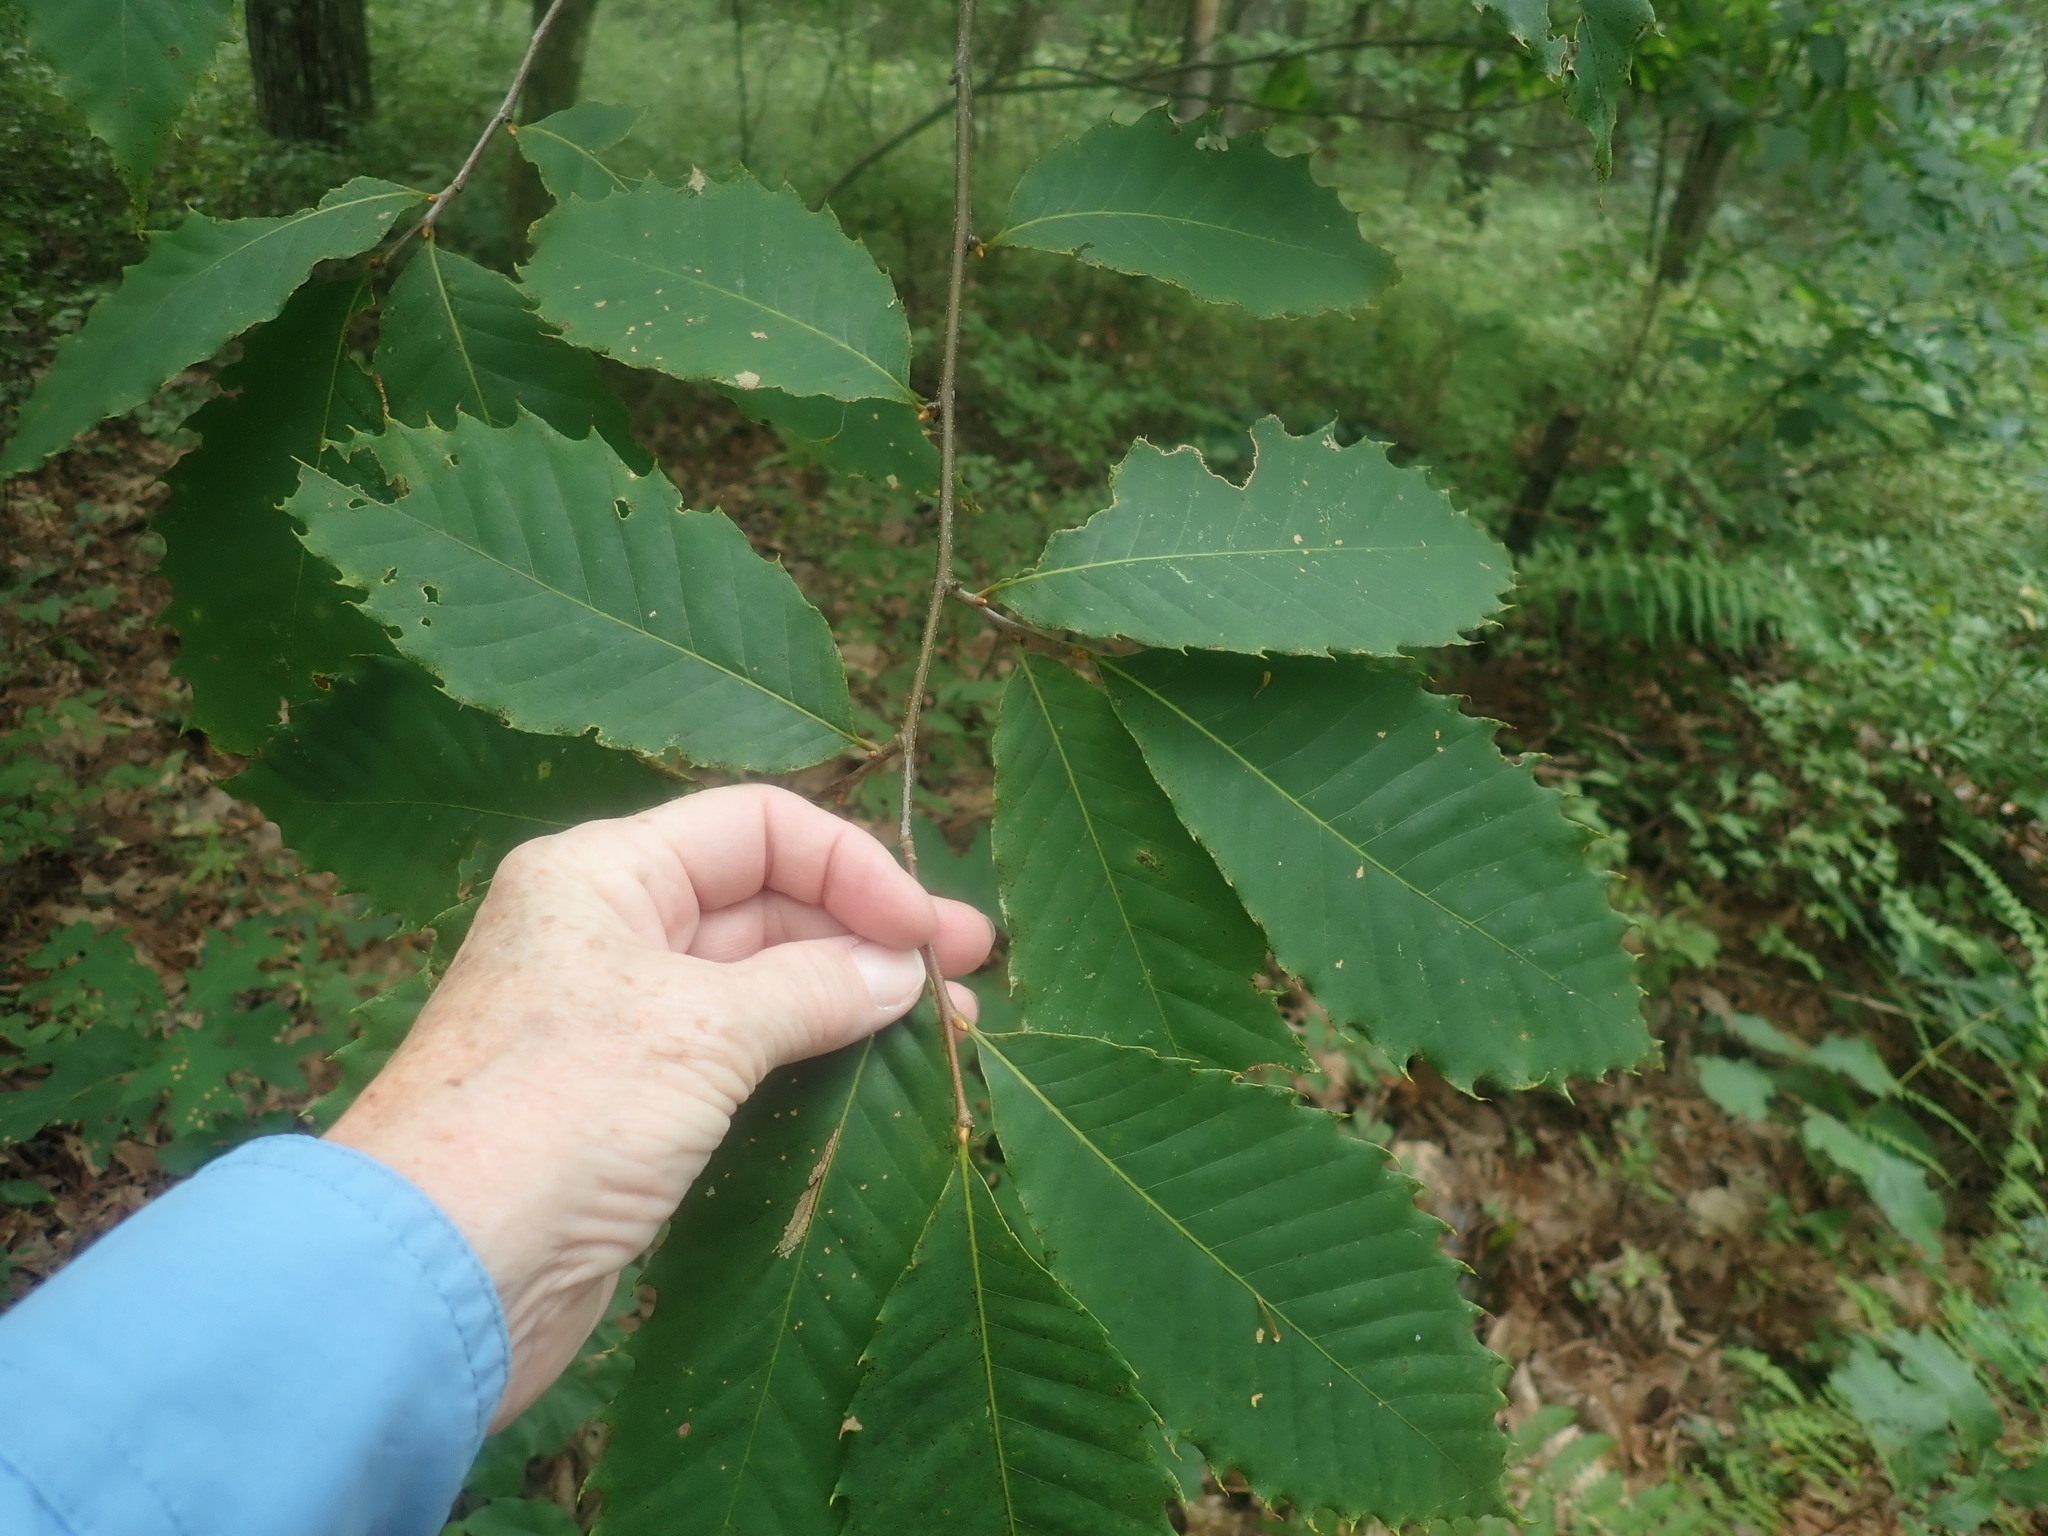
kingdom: Plantae
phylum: Tracheophyta
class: Magnoliopsida
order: Fagales
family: Fagaceae
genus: Castanea
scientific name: Castanea dentata
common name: American chestnut
